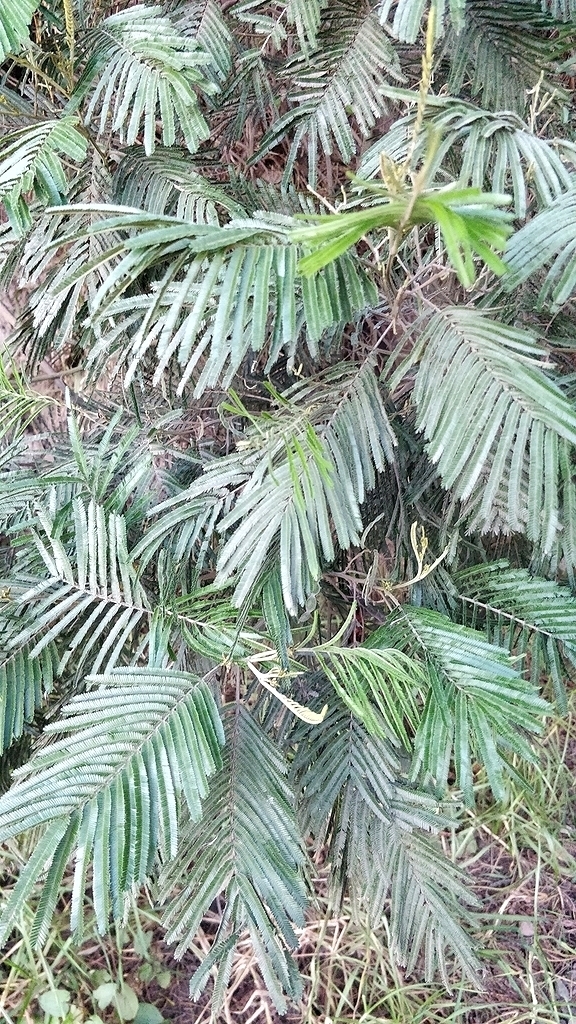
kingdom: Plantae
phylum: Tracheophyta
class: Magnoliopsida
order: Fabales
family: Fabaceae
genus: Acacia
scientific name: Acacia mearnsii
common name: Black wattle
